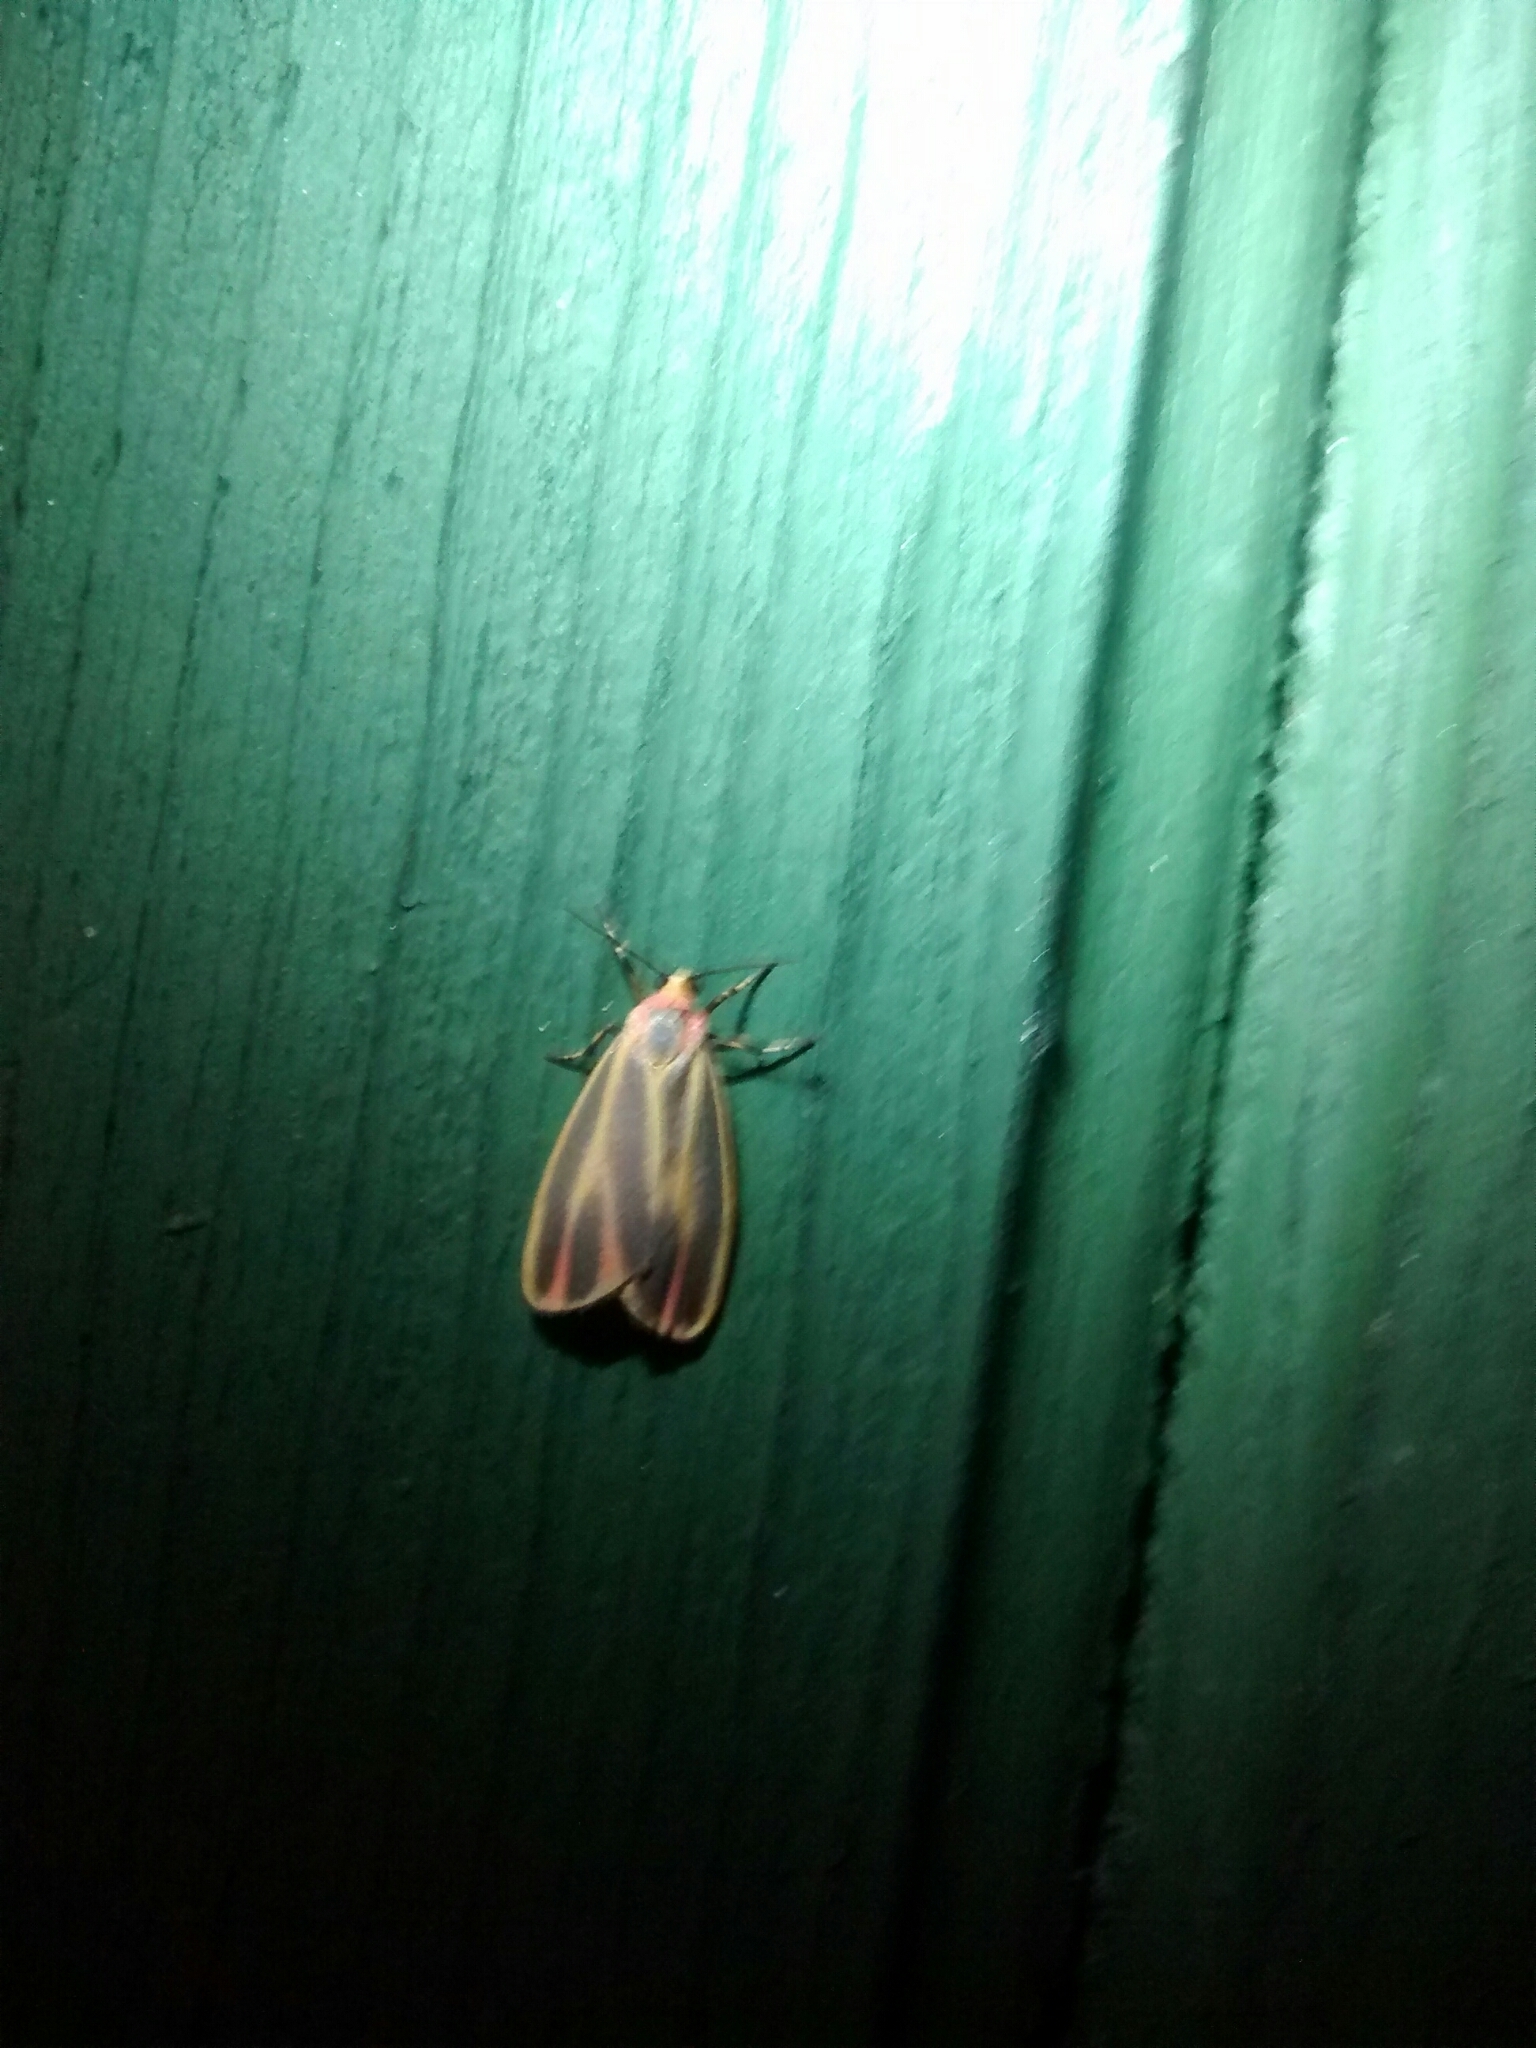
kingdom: Animalia
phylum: Arthropoda
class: Insecta
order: Lepidoptera
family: Erebidae
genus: Hypoprepia
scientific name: Hypoprepia fucosa
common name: Painted lichen moth
